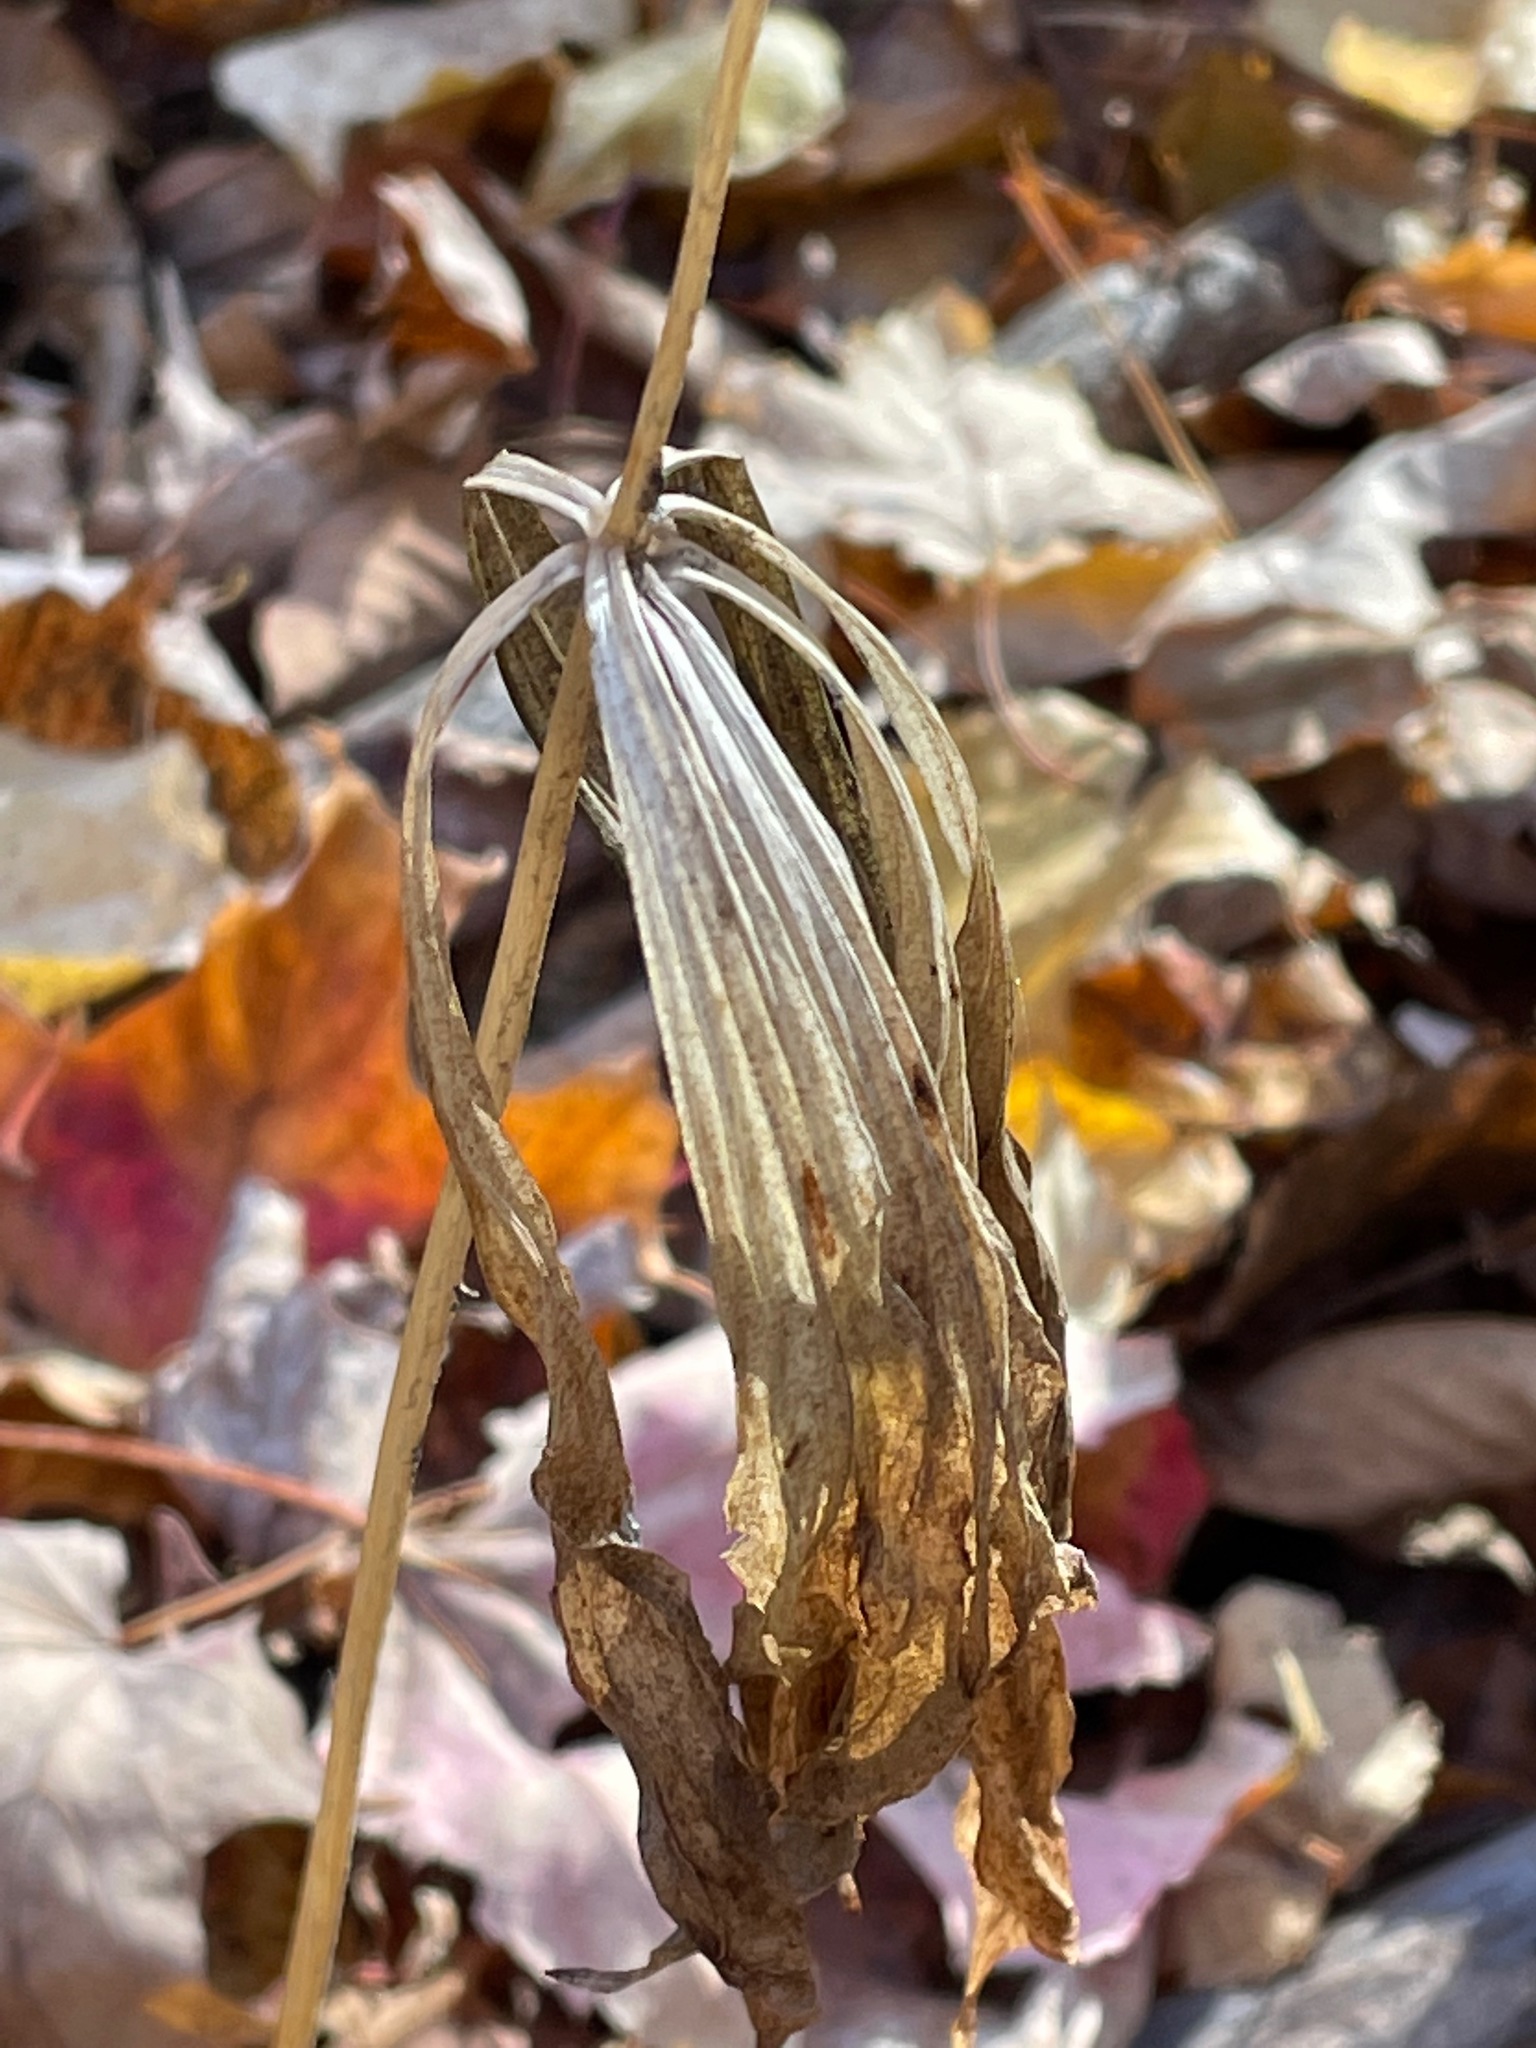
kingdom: Plantae
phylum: Tracheophyta
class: Liliopsida
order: Liliales
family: Liliaceae
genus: Medeola
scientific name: Medeola virginiana
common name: Indian cucumber-root
